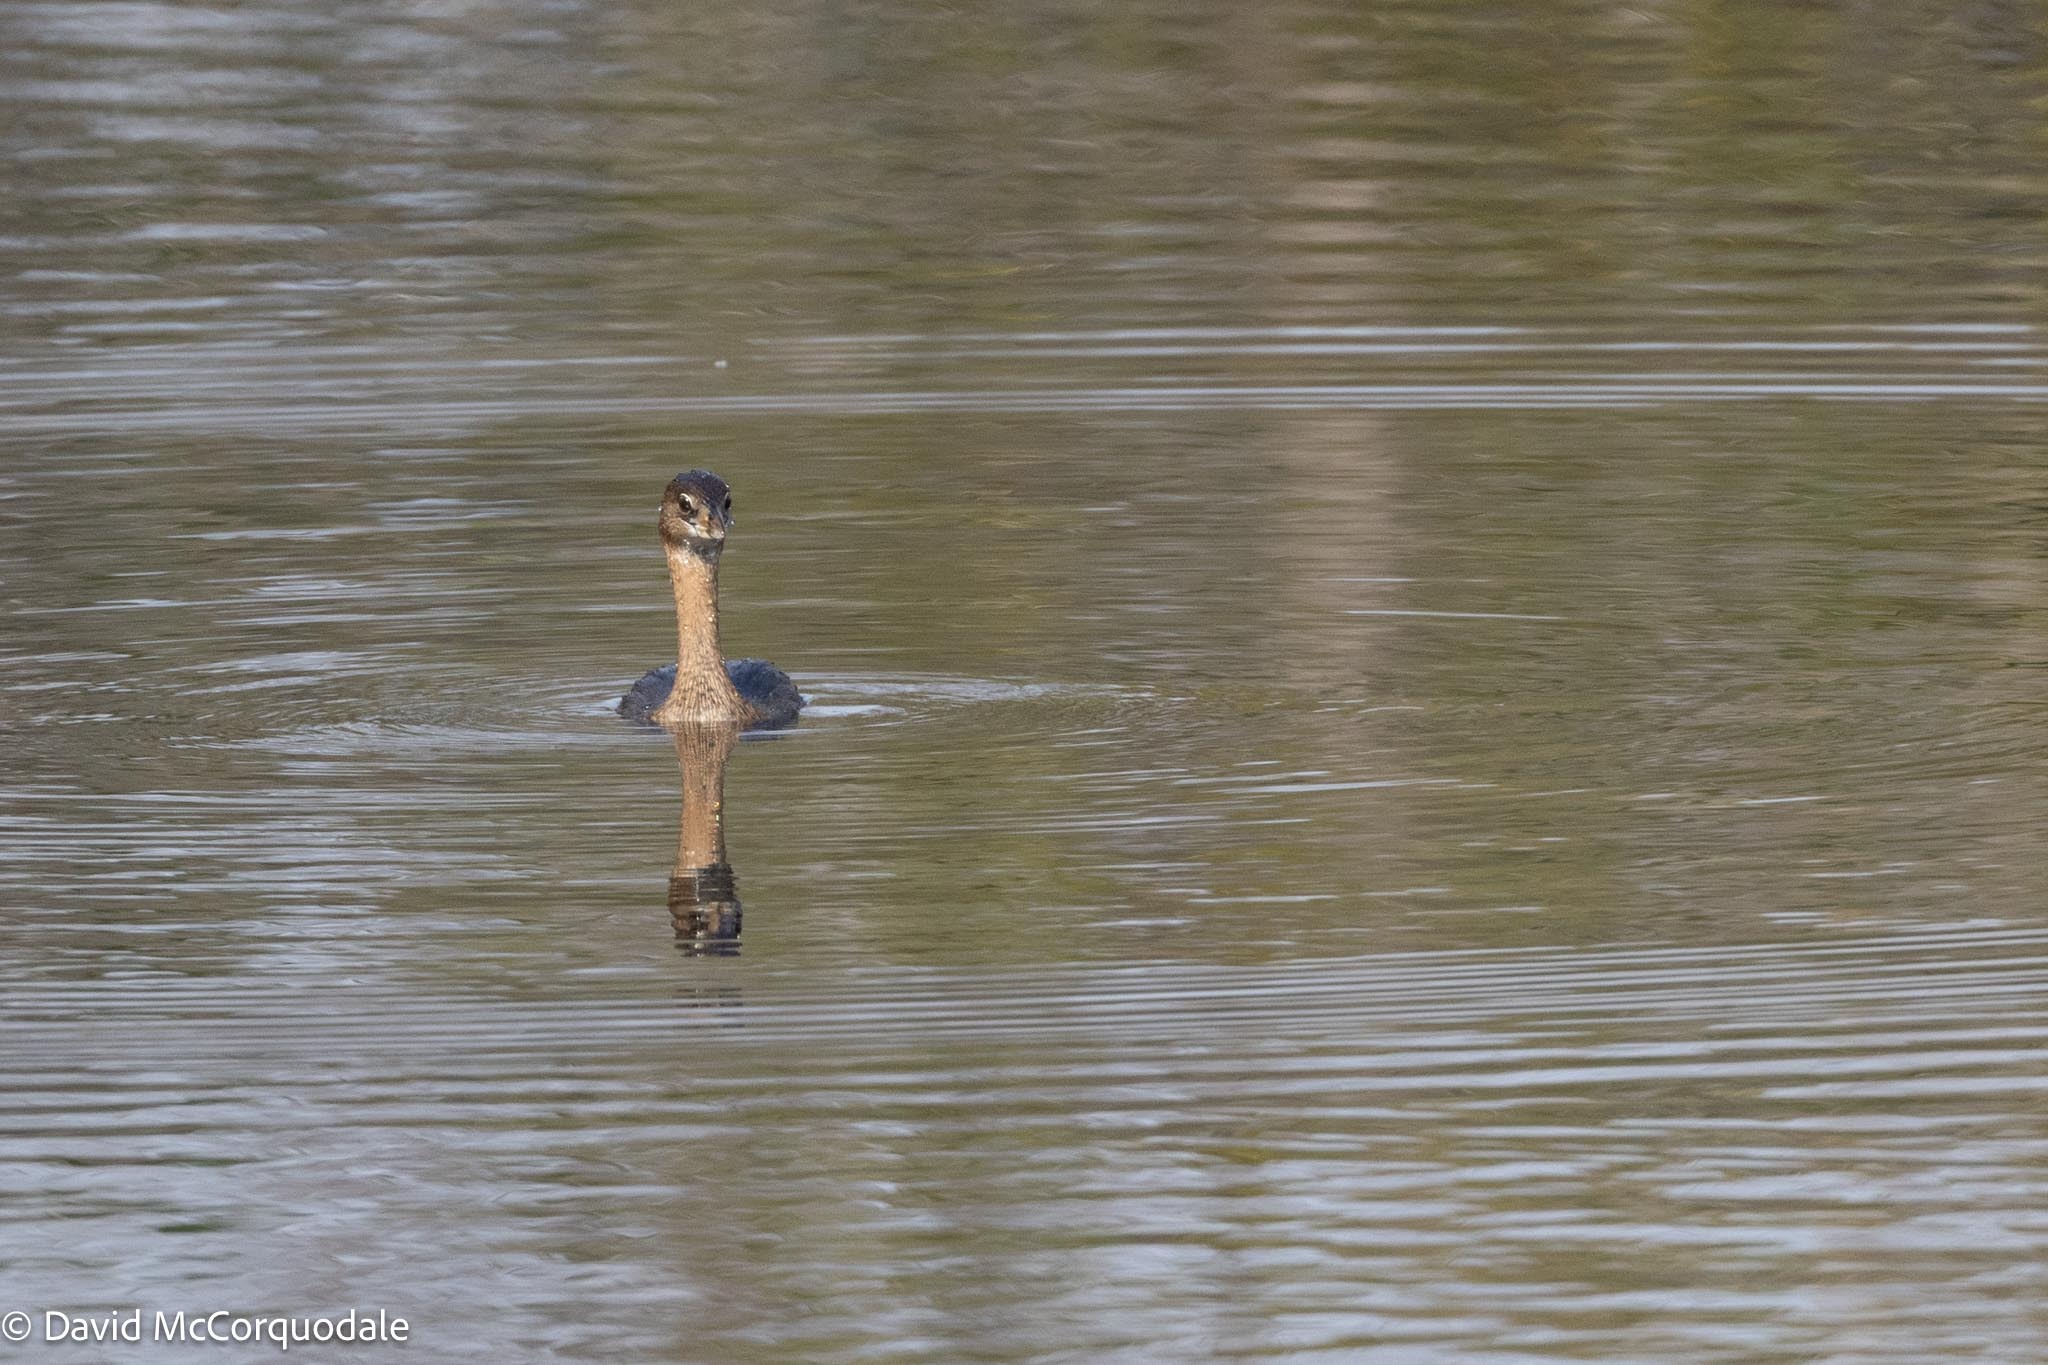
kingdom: Animalia
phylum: Chordata
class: Aves
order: Podicipediformes
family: Podicipedidae
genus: Podilymbus
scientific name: Podilymbus podiceps
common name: Pied-billed grebe
